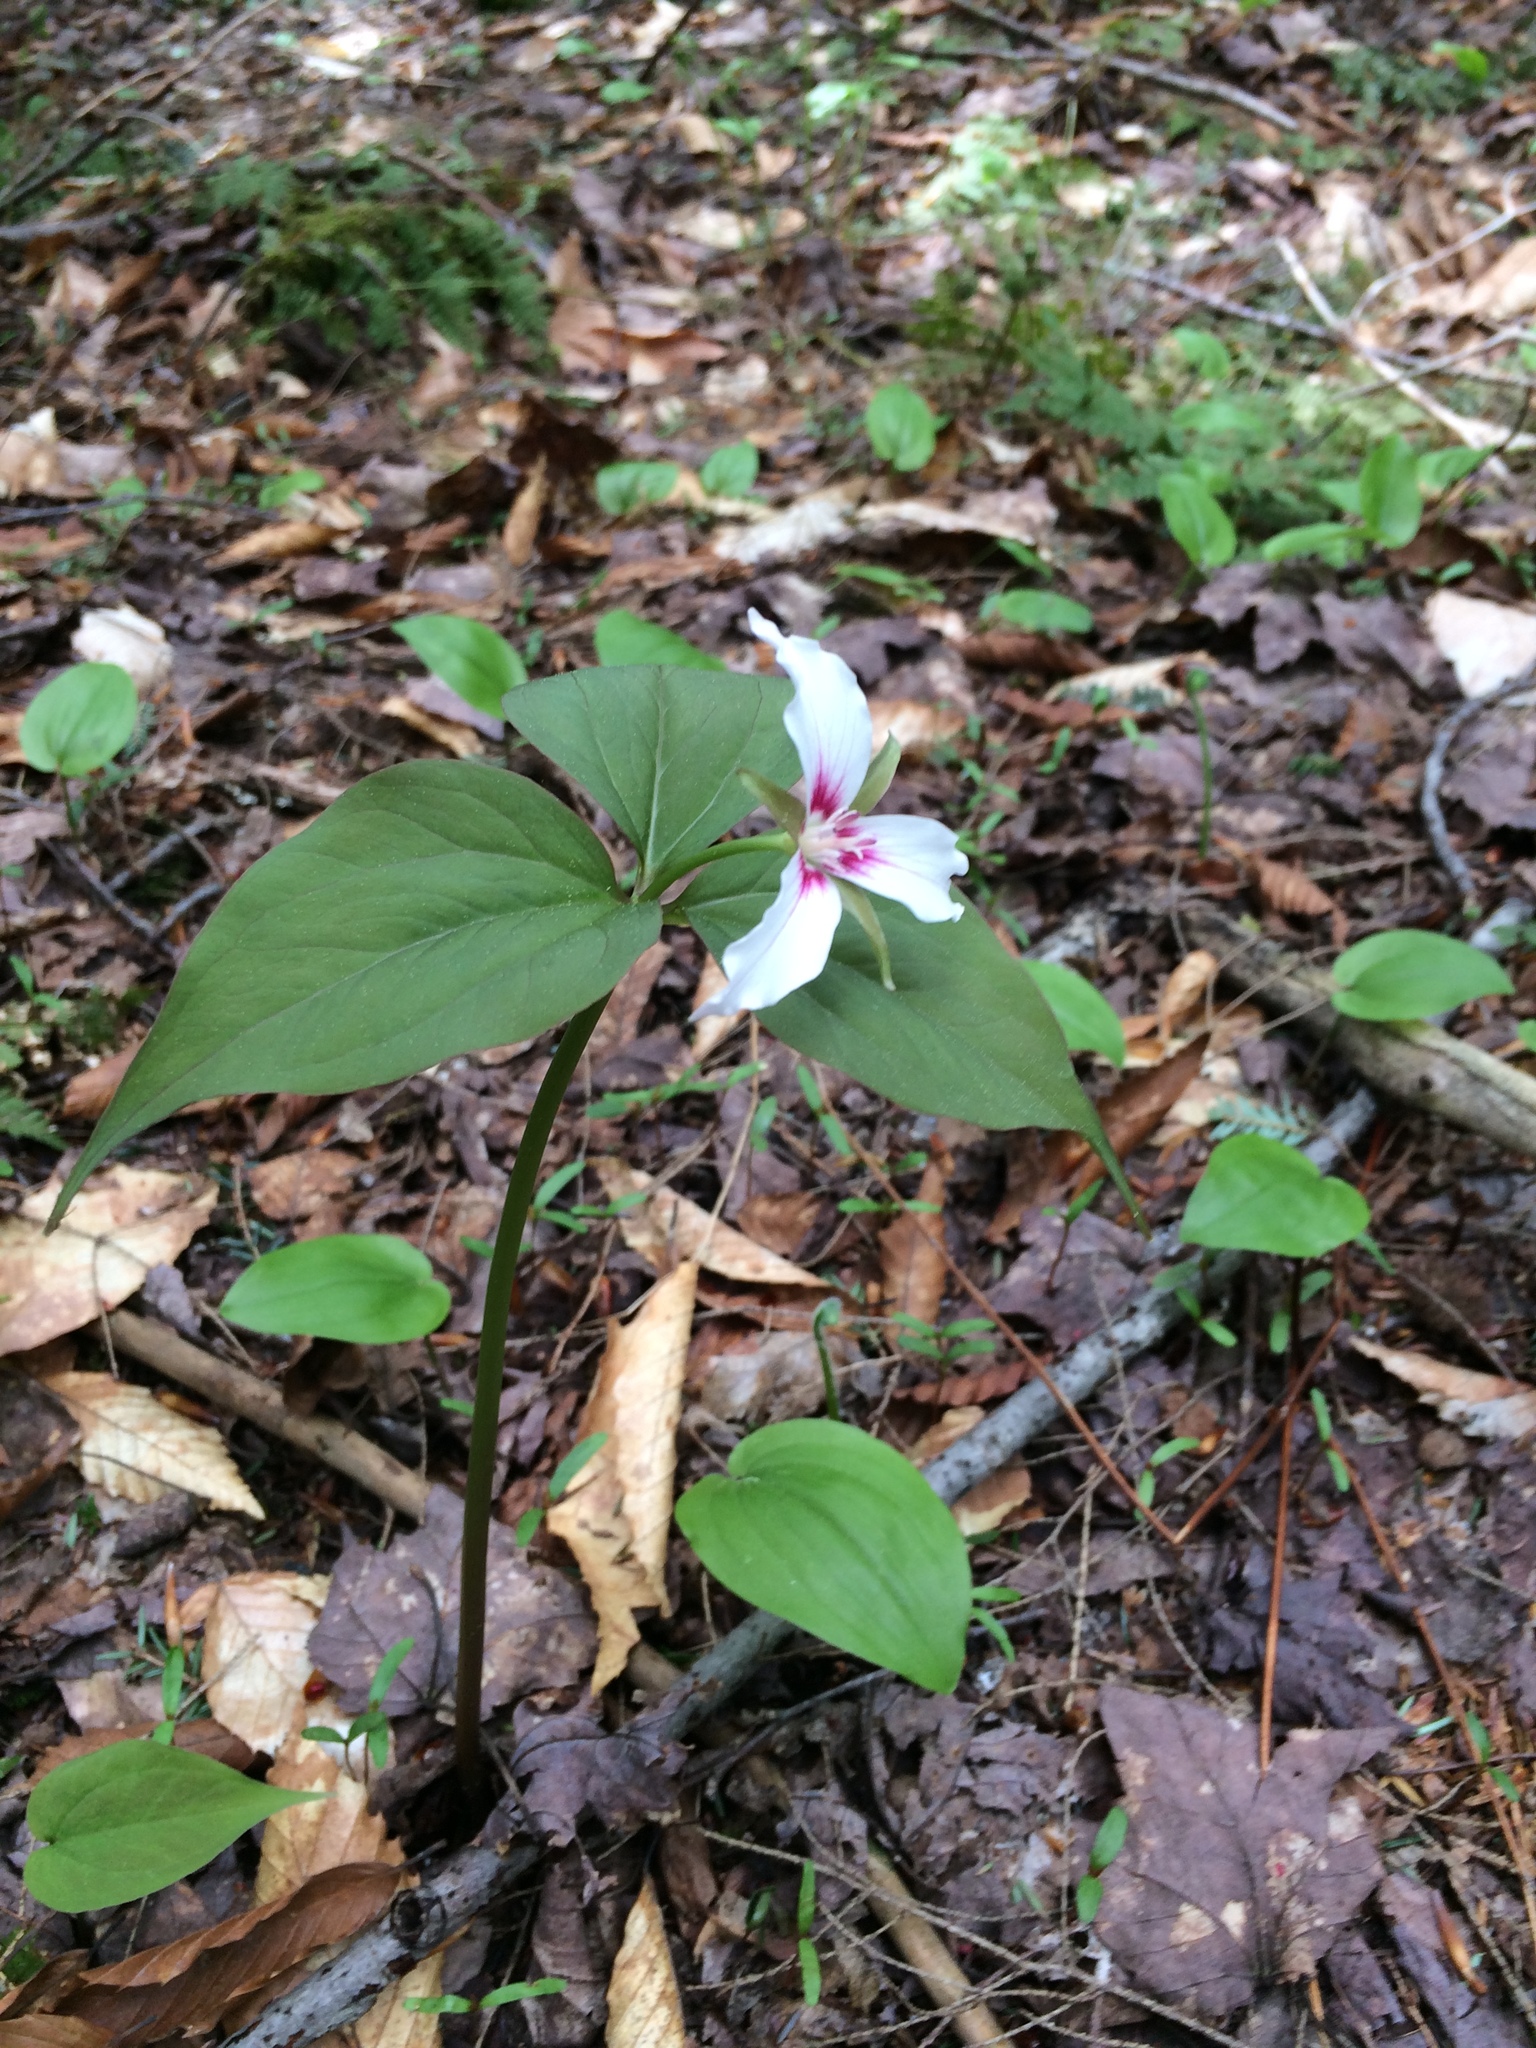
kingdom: Plantae
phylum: Tracheophyta
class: Liliopsida
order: Liliales
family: Melanthiaceae
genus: Trillium
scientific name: Trillium undulatum
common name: Paint trillium
